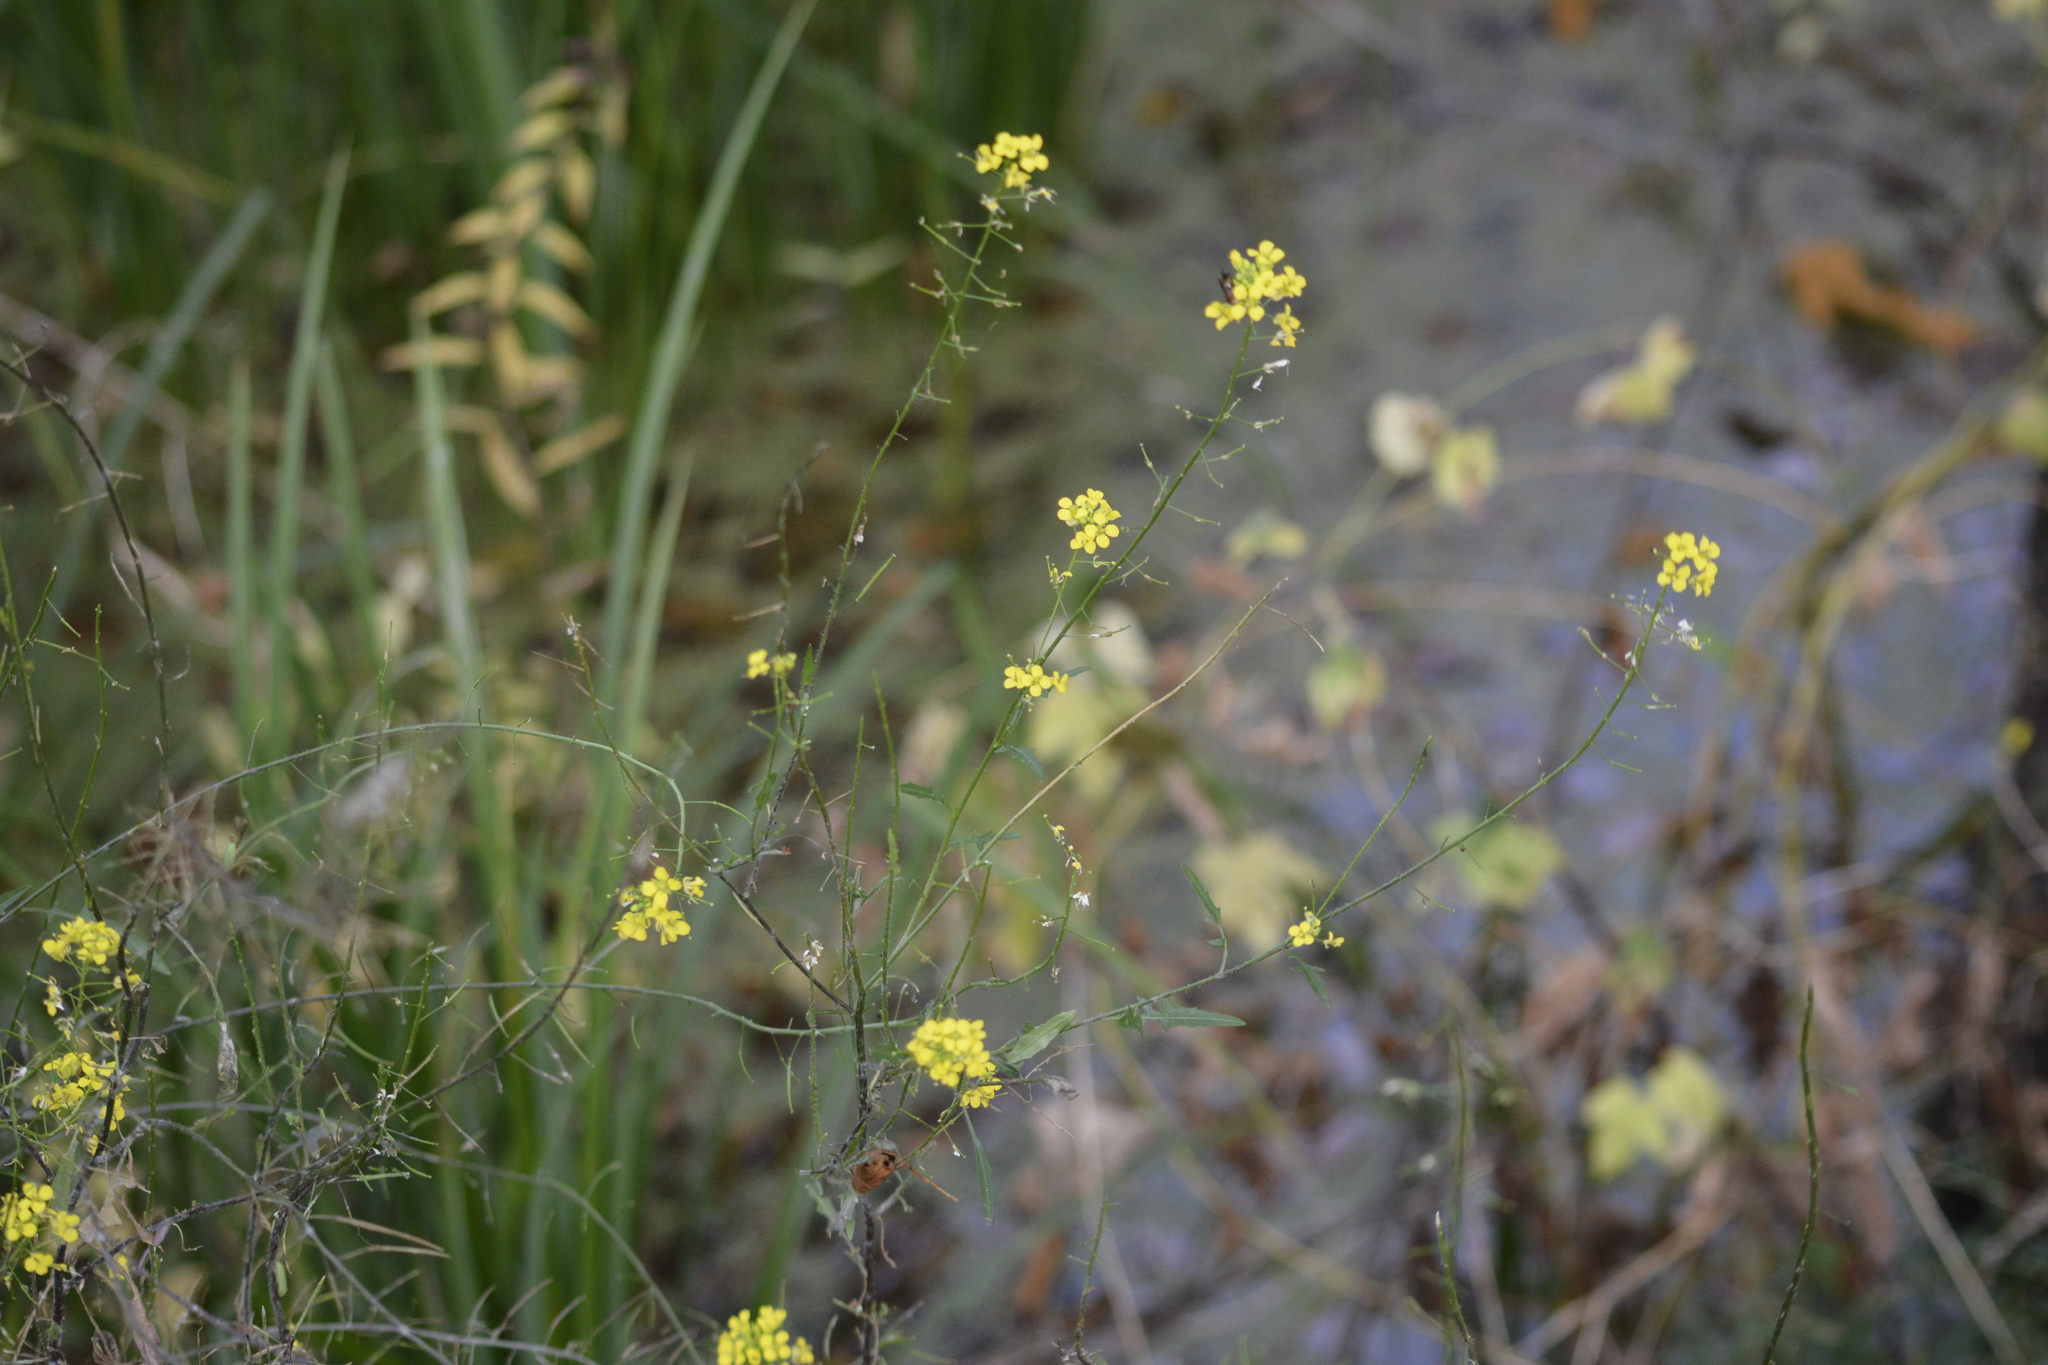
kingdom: Plantae
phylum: Tracheophyta
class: Magnoliopsida
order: Brassicales
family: Brassicaceae
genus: Sisymbrium
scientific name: Sisymbrium loeselii
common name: False london-rocket
